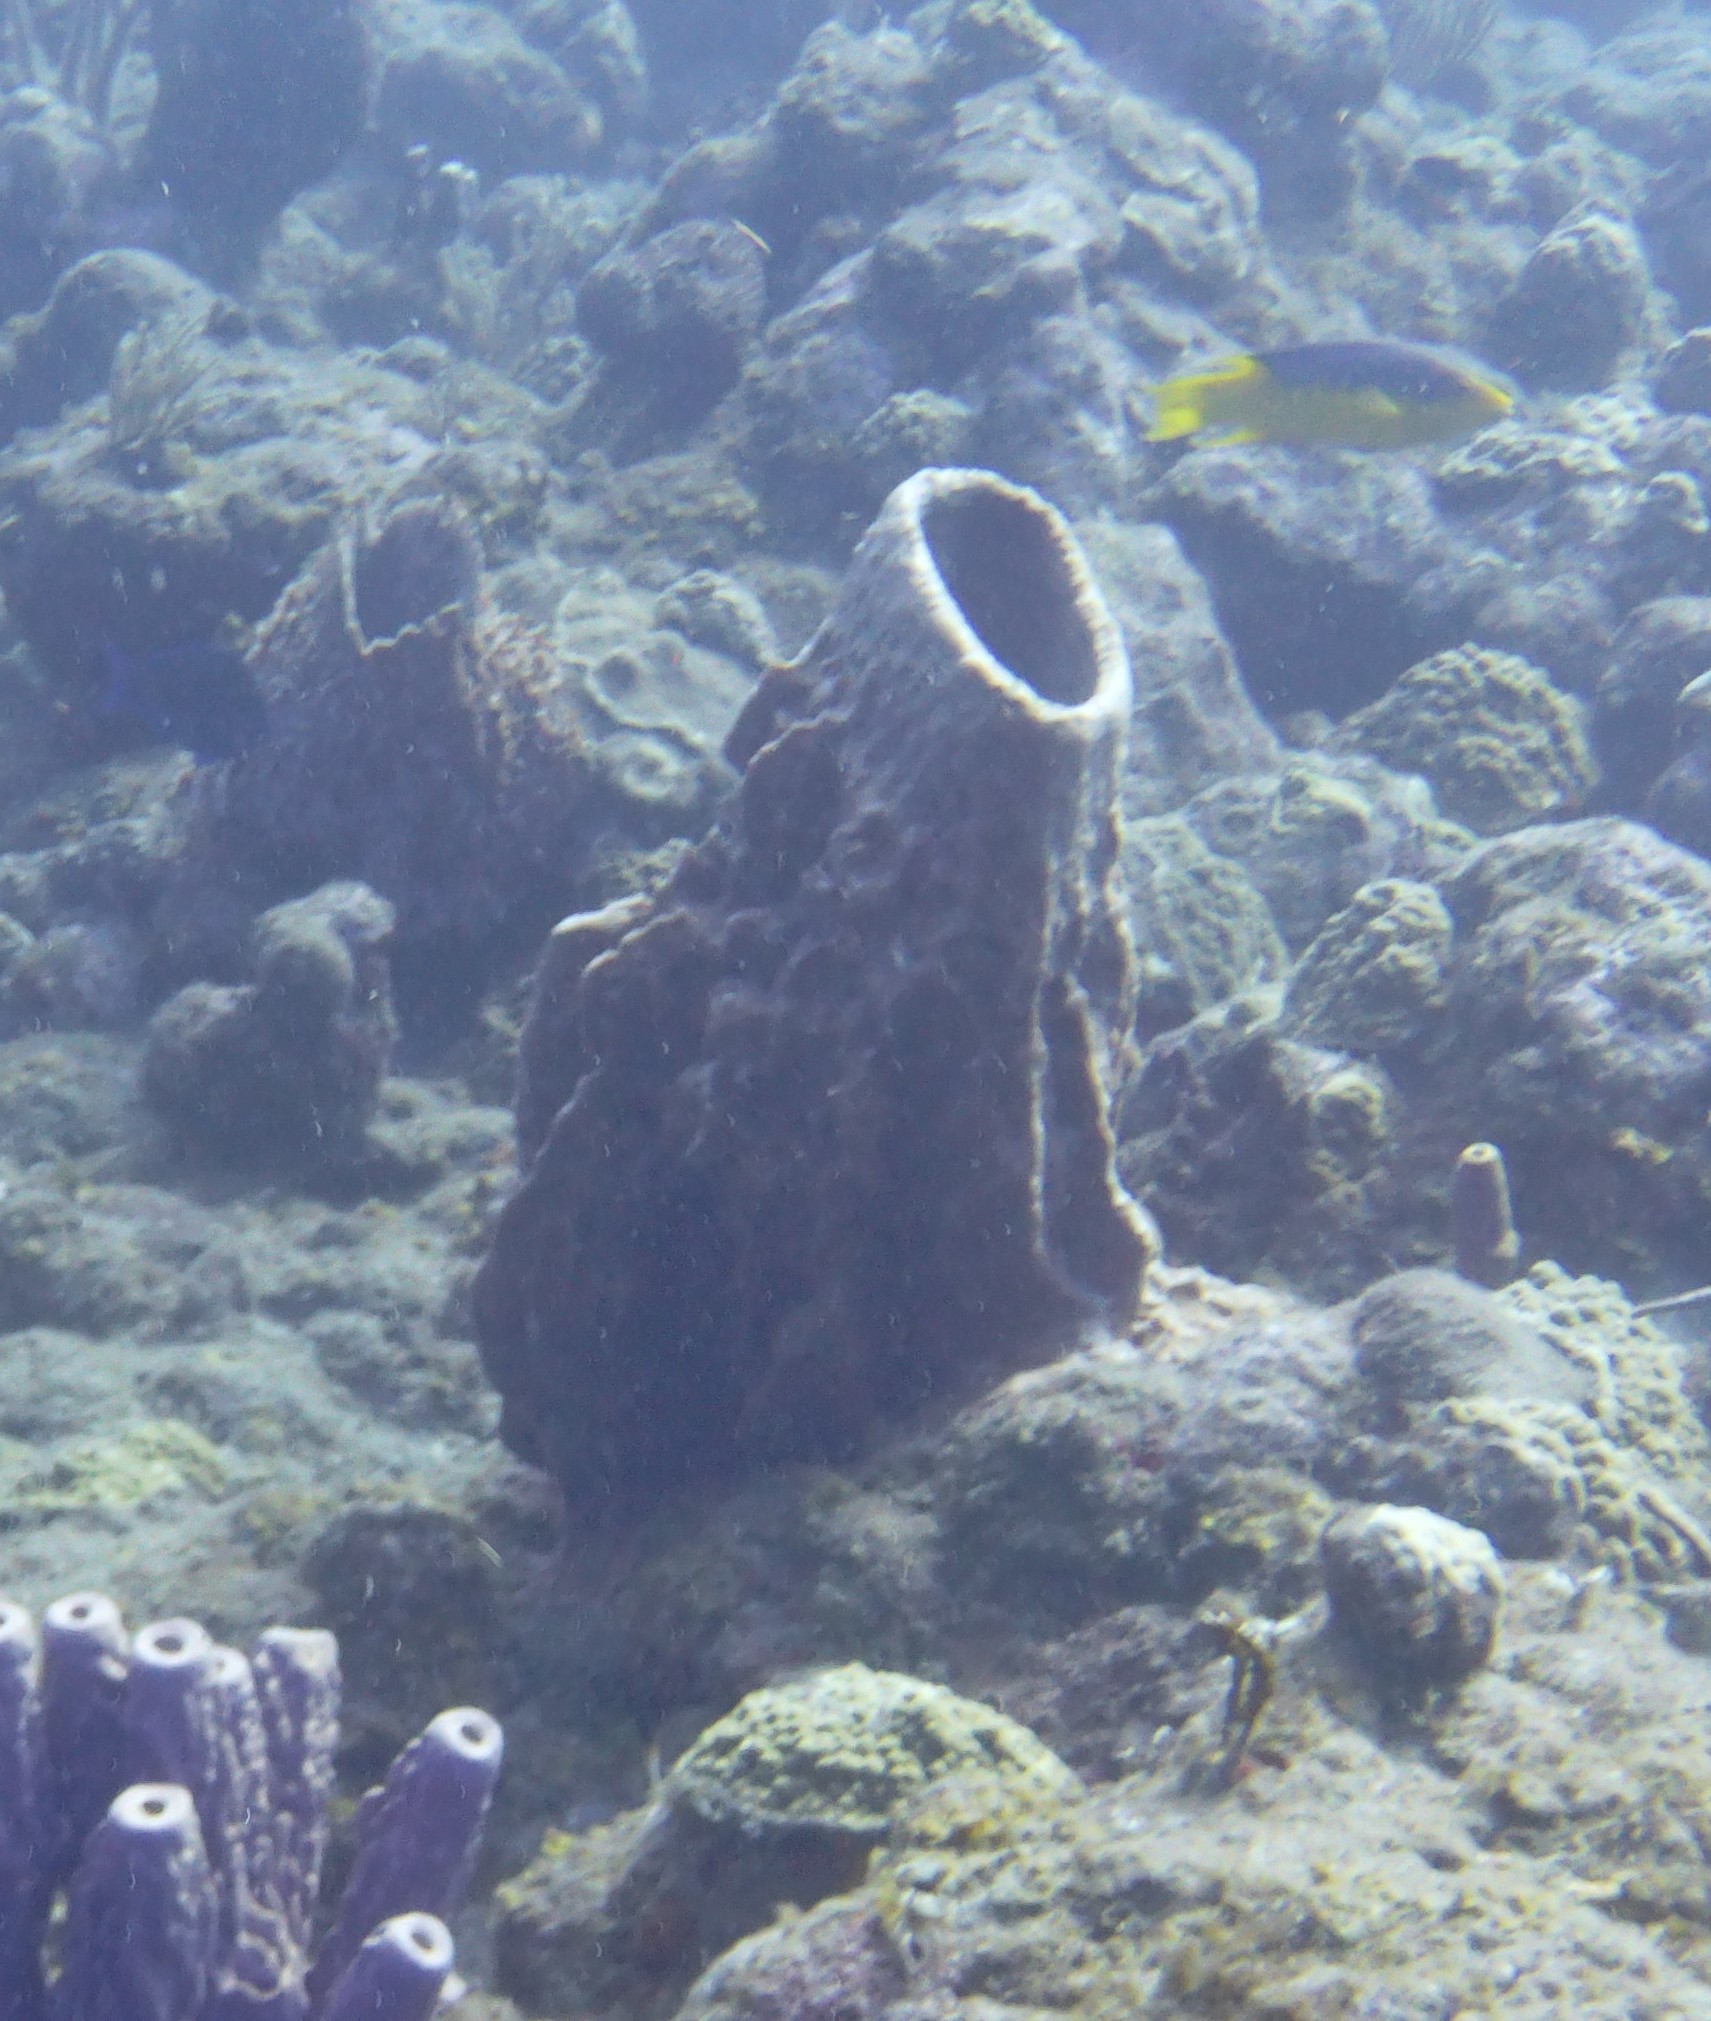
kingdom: Animalia
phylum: Porifera
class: Demospongiae
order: Haplosclerida
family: Petrosiidae
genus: Xestospongia
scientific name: Xestospongia muta
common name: Giant barrel sponge
